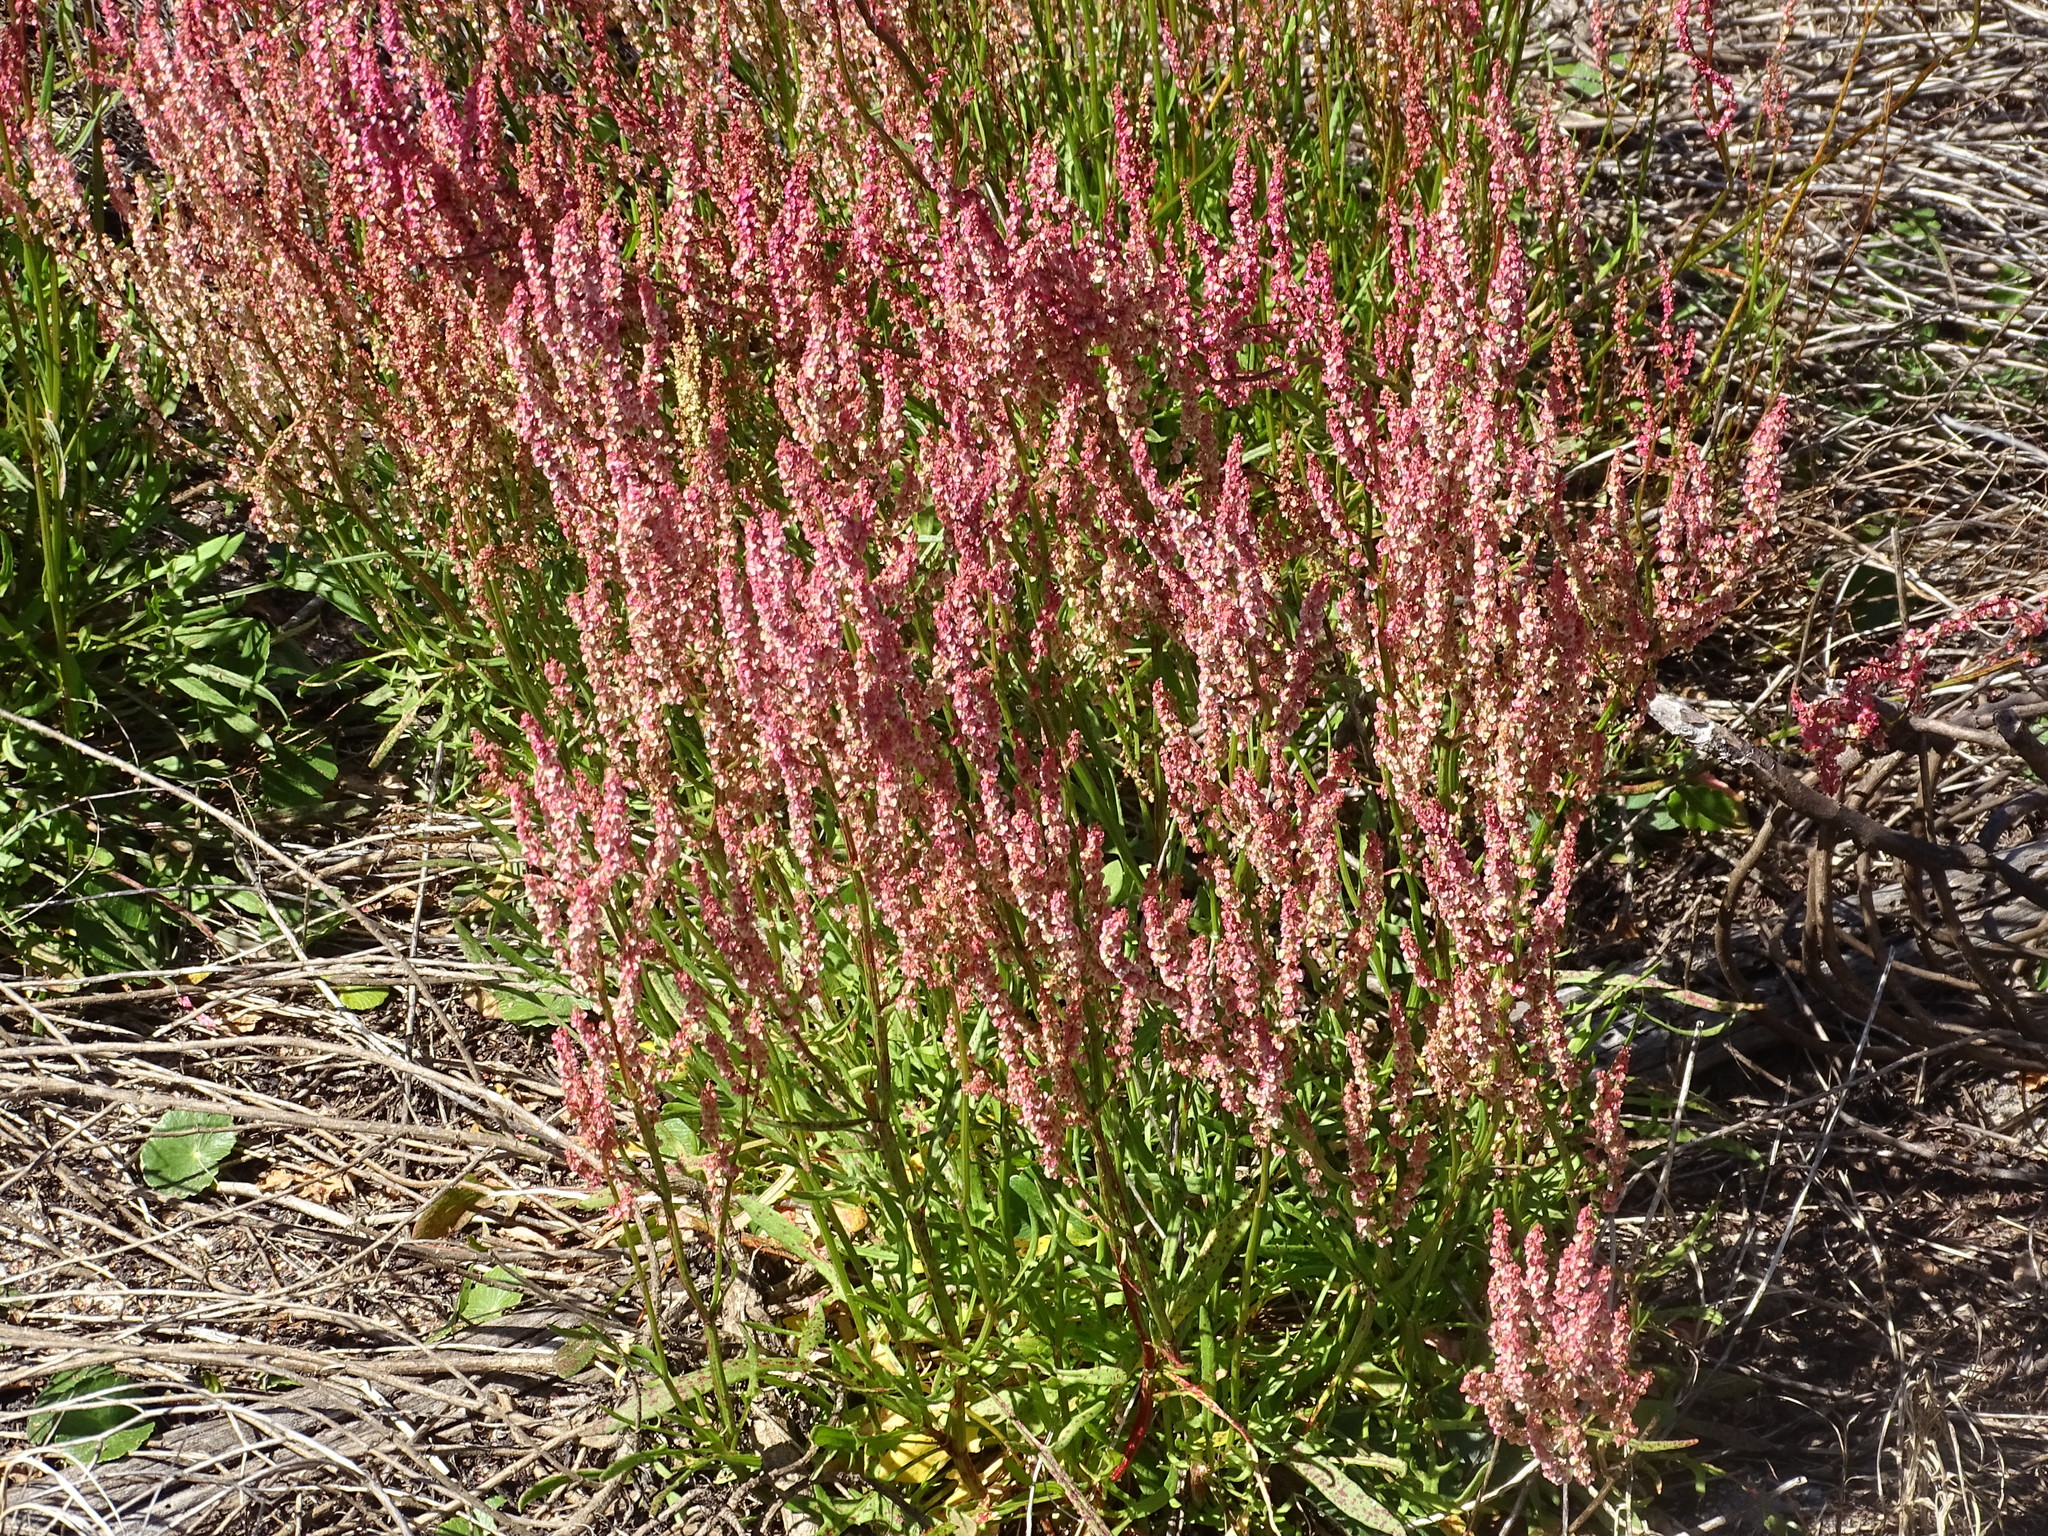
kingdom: Plantae
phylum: Tracheophyta
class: Magnoliopsida
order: Caryophyllales
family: Polygonaceae
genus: Rumex
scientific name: Rumex hastatulus
